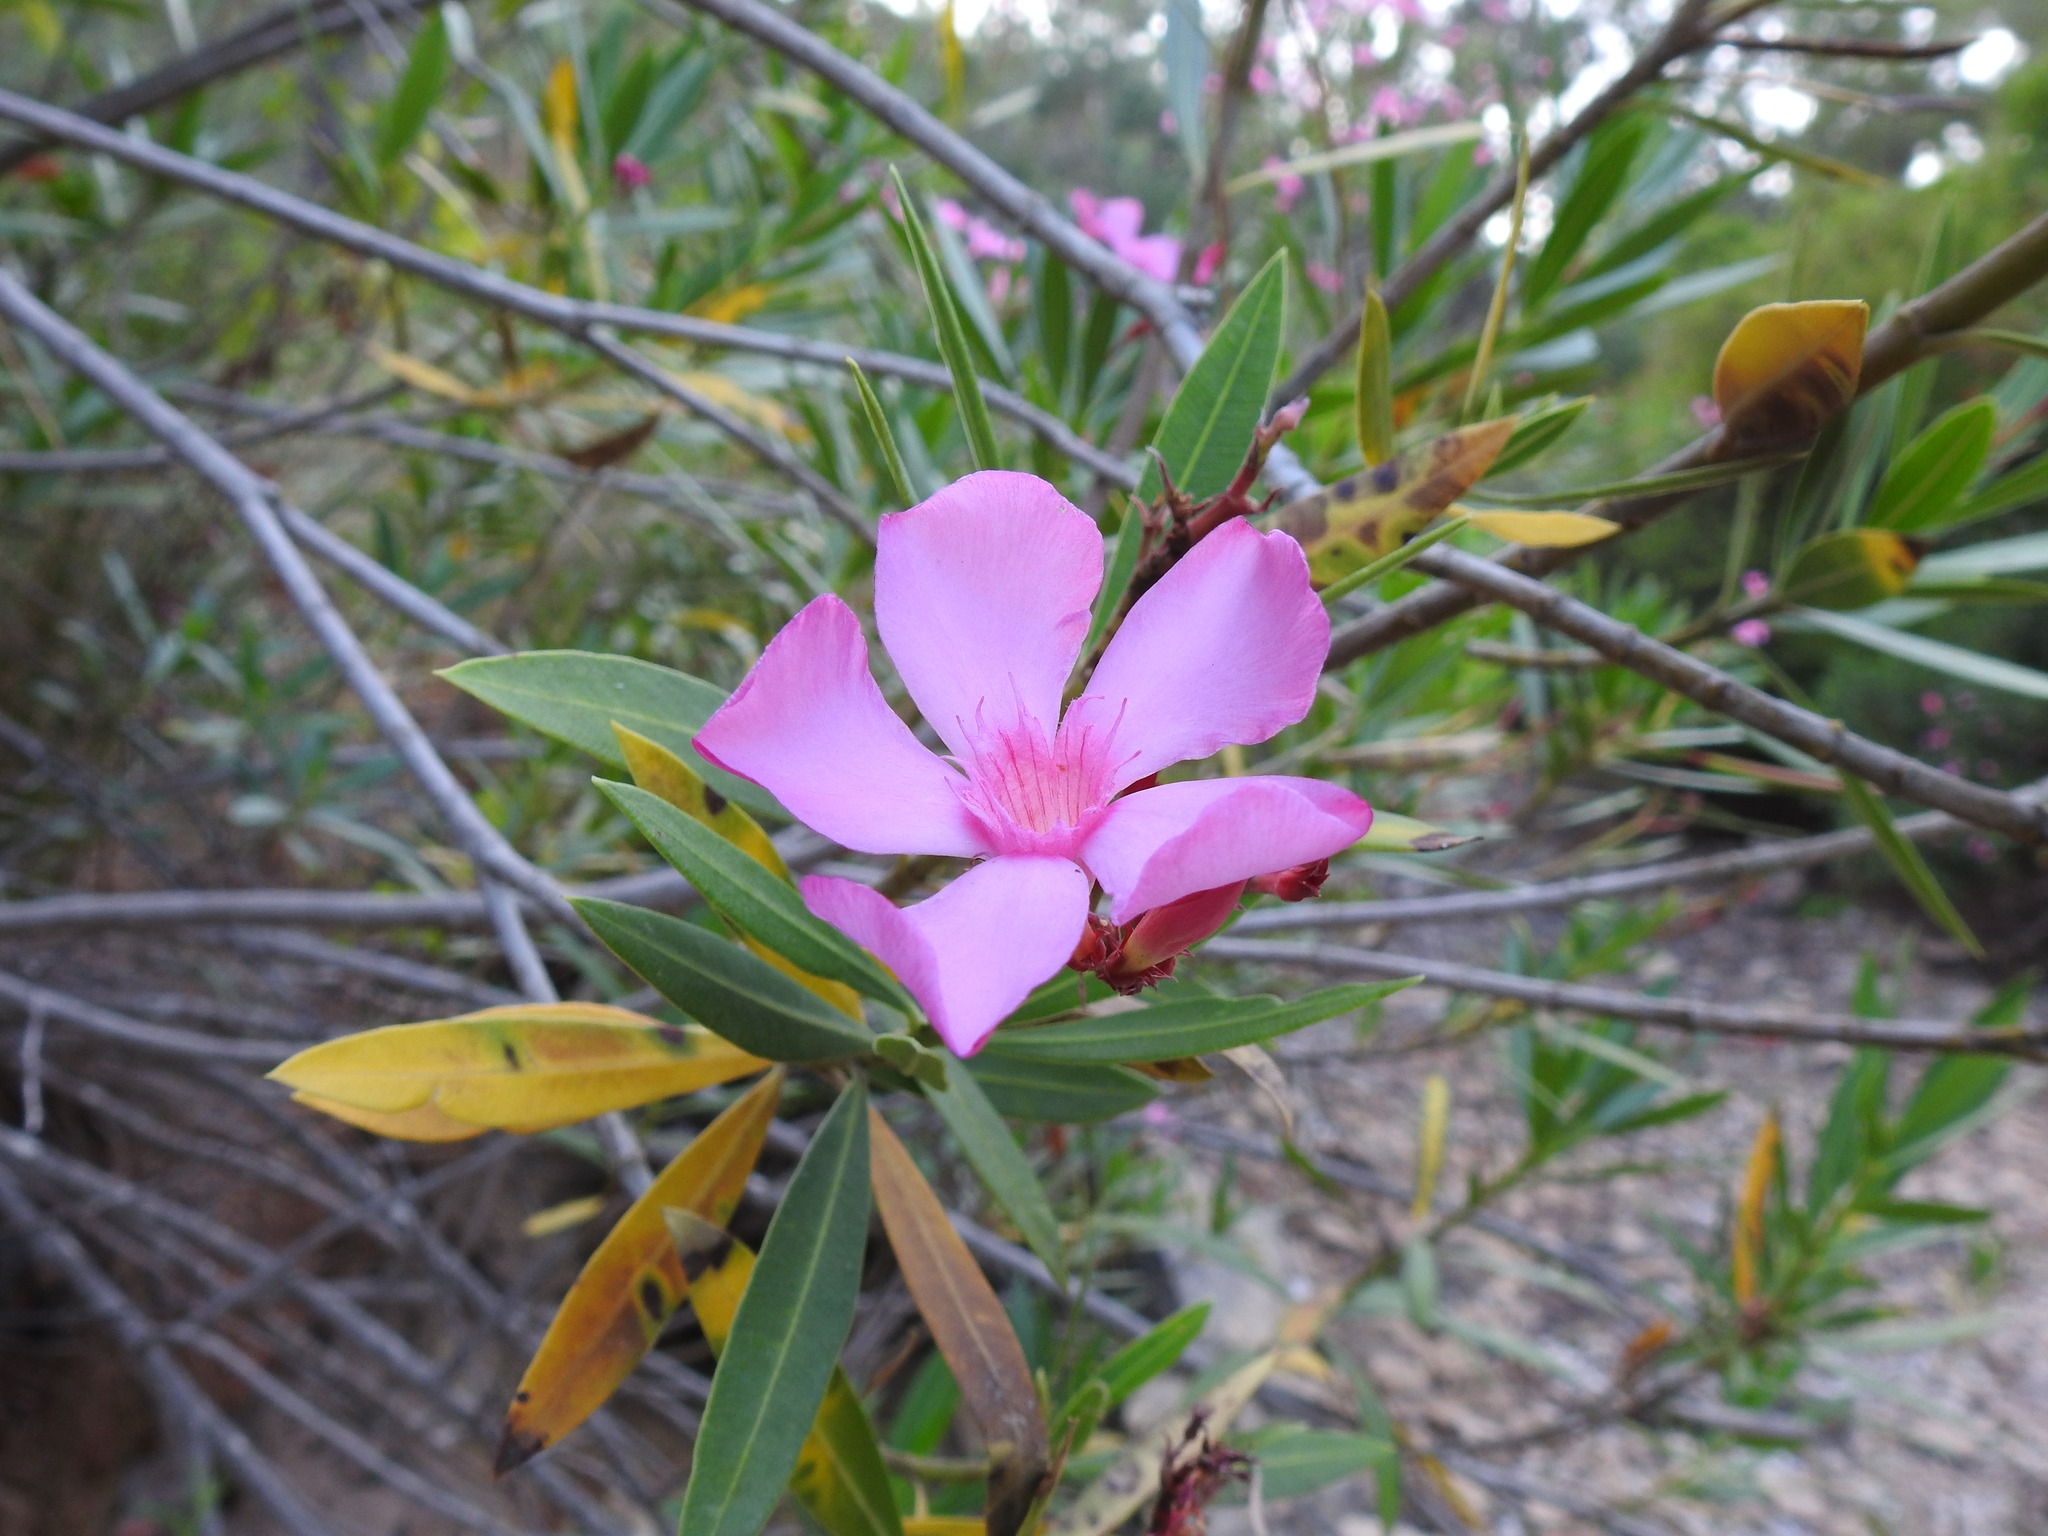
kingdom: Plantae
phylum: Tracheophyta
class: Magnoliopsida
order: Gentianales
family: Apocynaceae
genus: Nerium
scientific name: Nerium oleander
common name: Oleander
